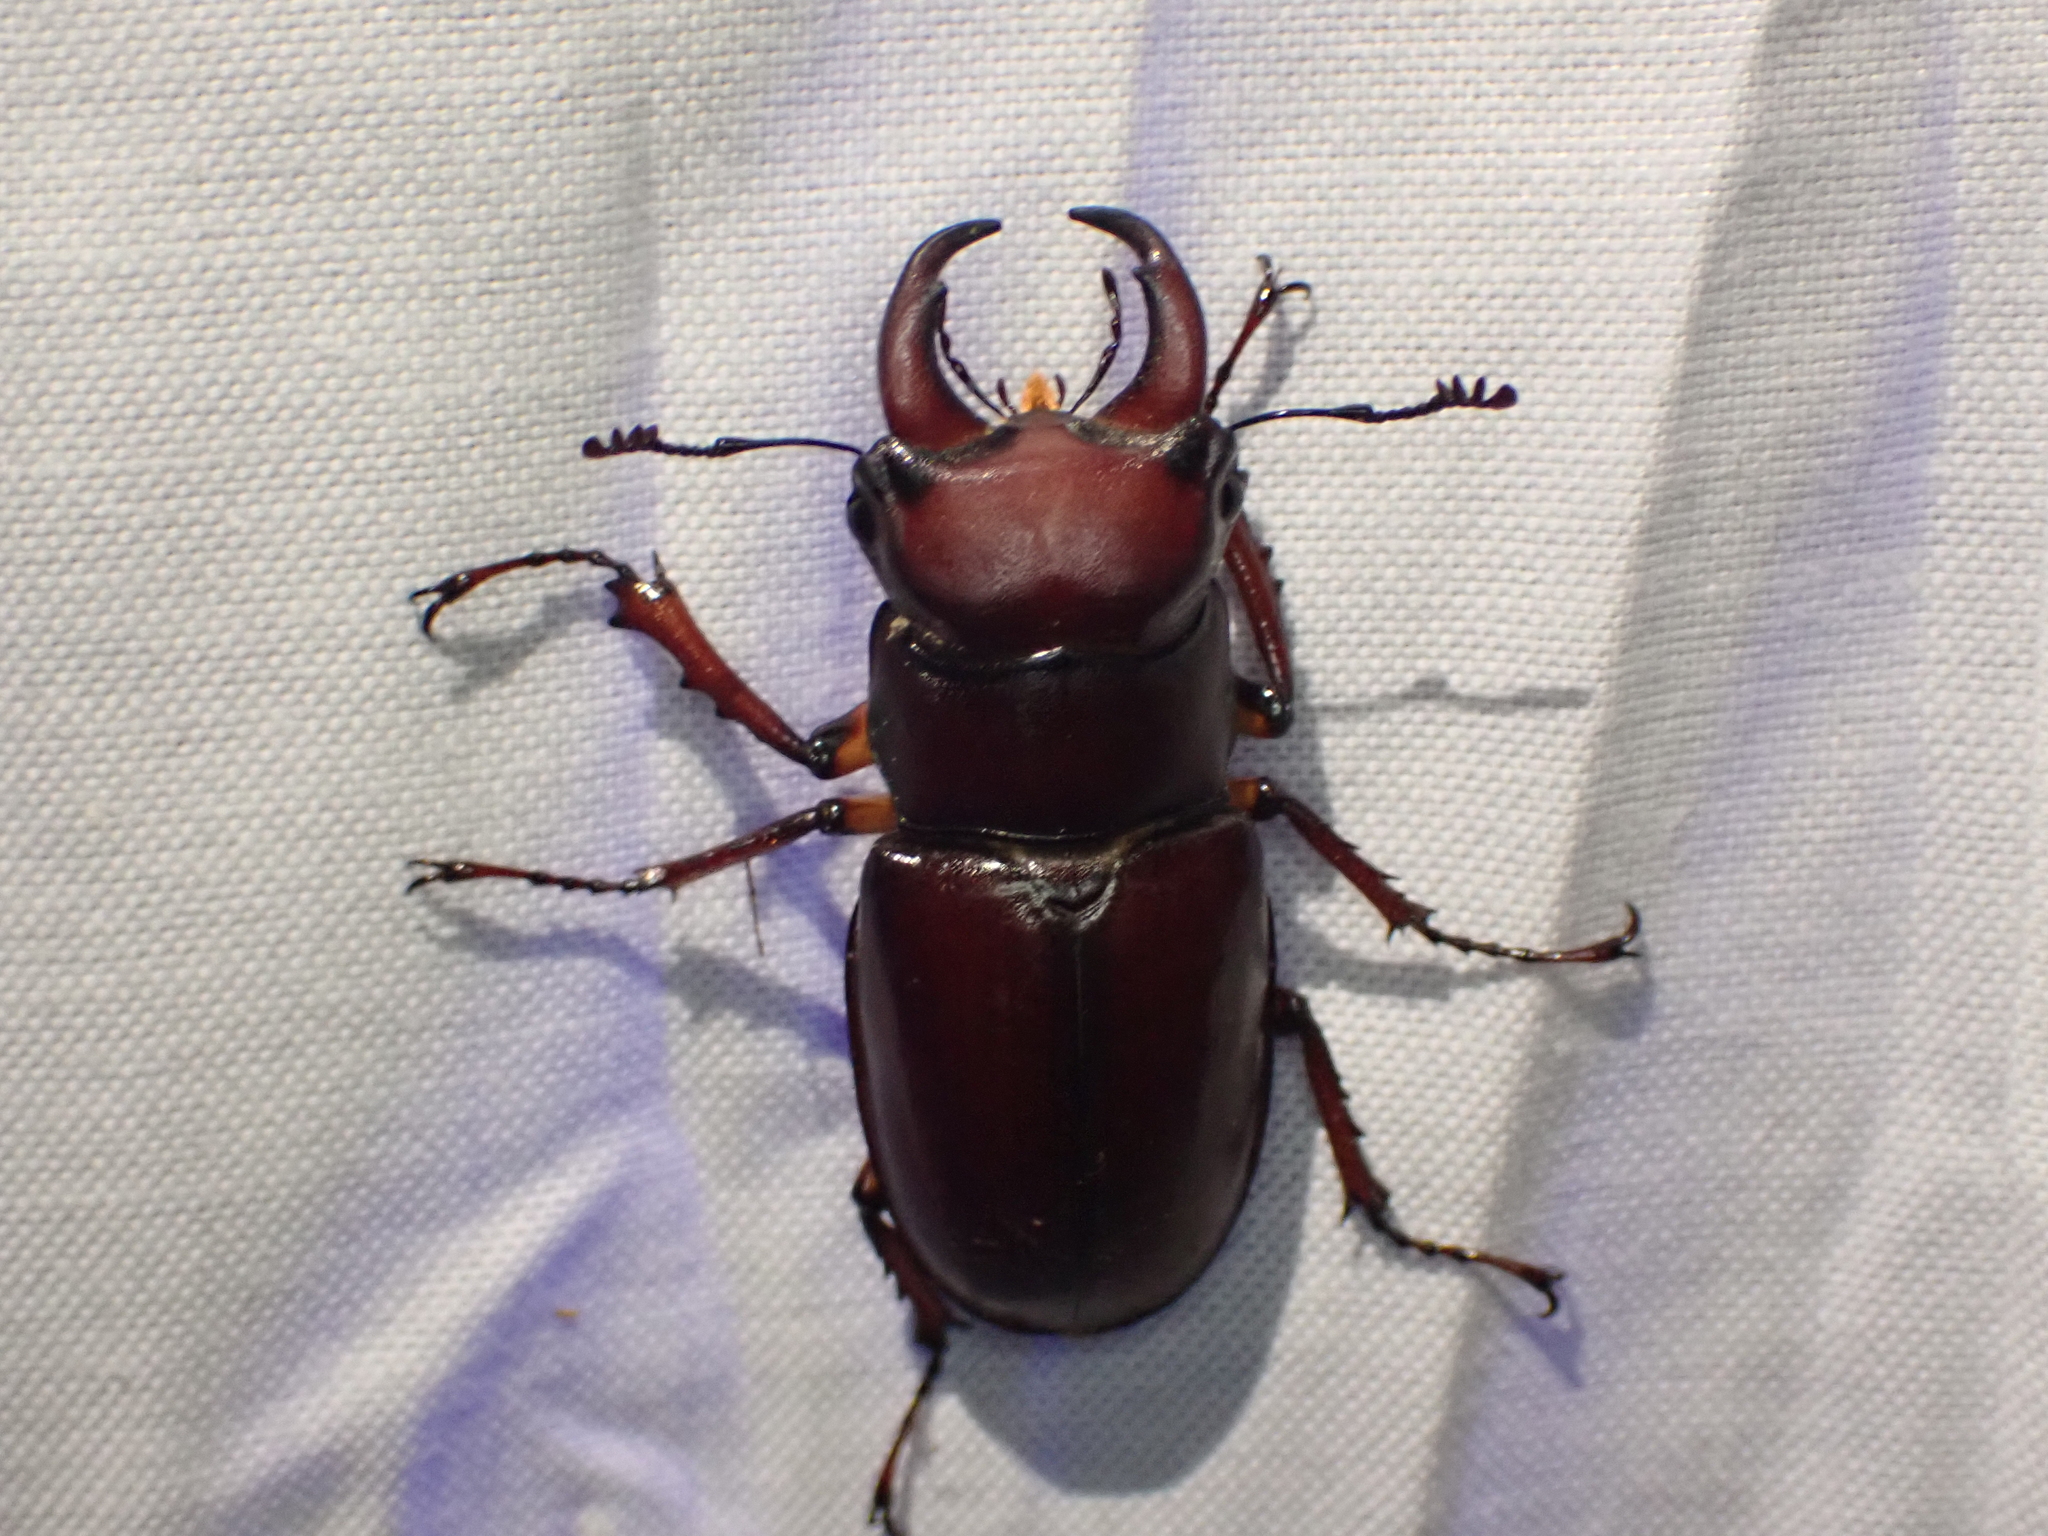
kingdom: Animalia
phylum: Arthropoda
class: Insecta
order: Coleoptera
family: Lucanidae
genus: Lucanus
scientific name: Lucanus capreolus
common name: Stag beetle
